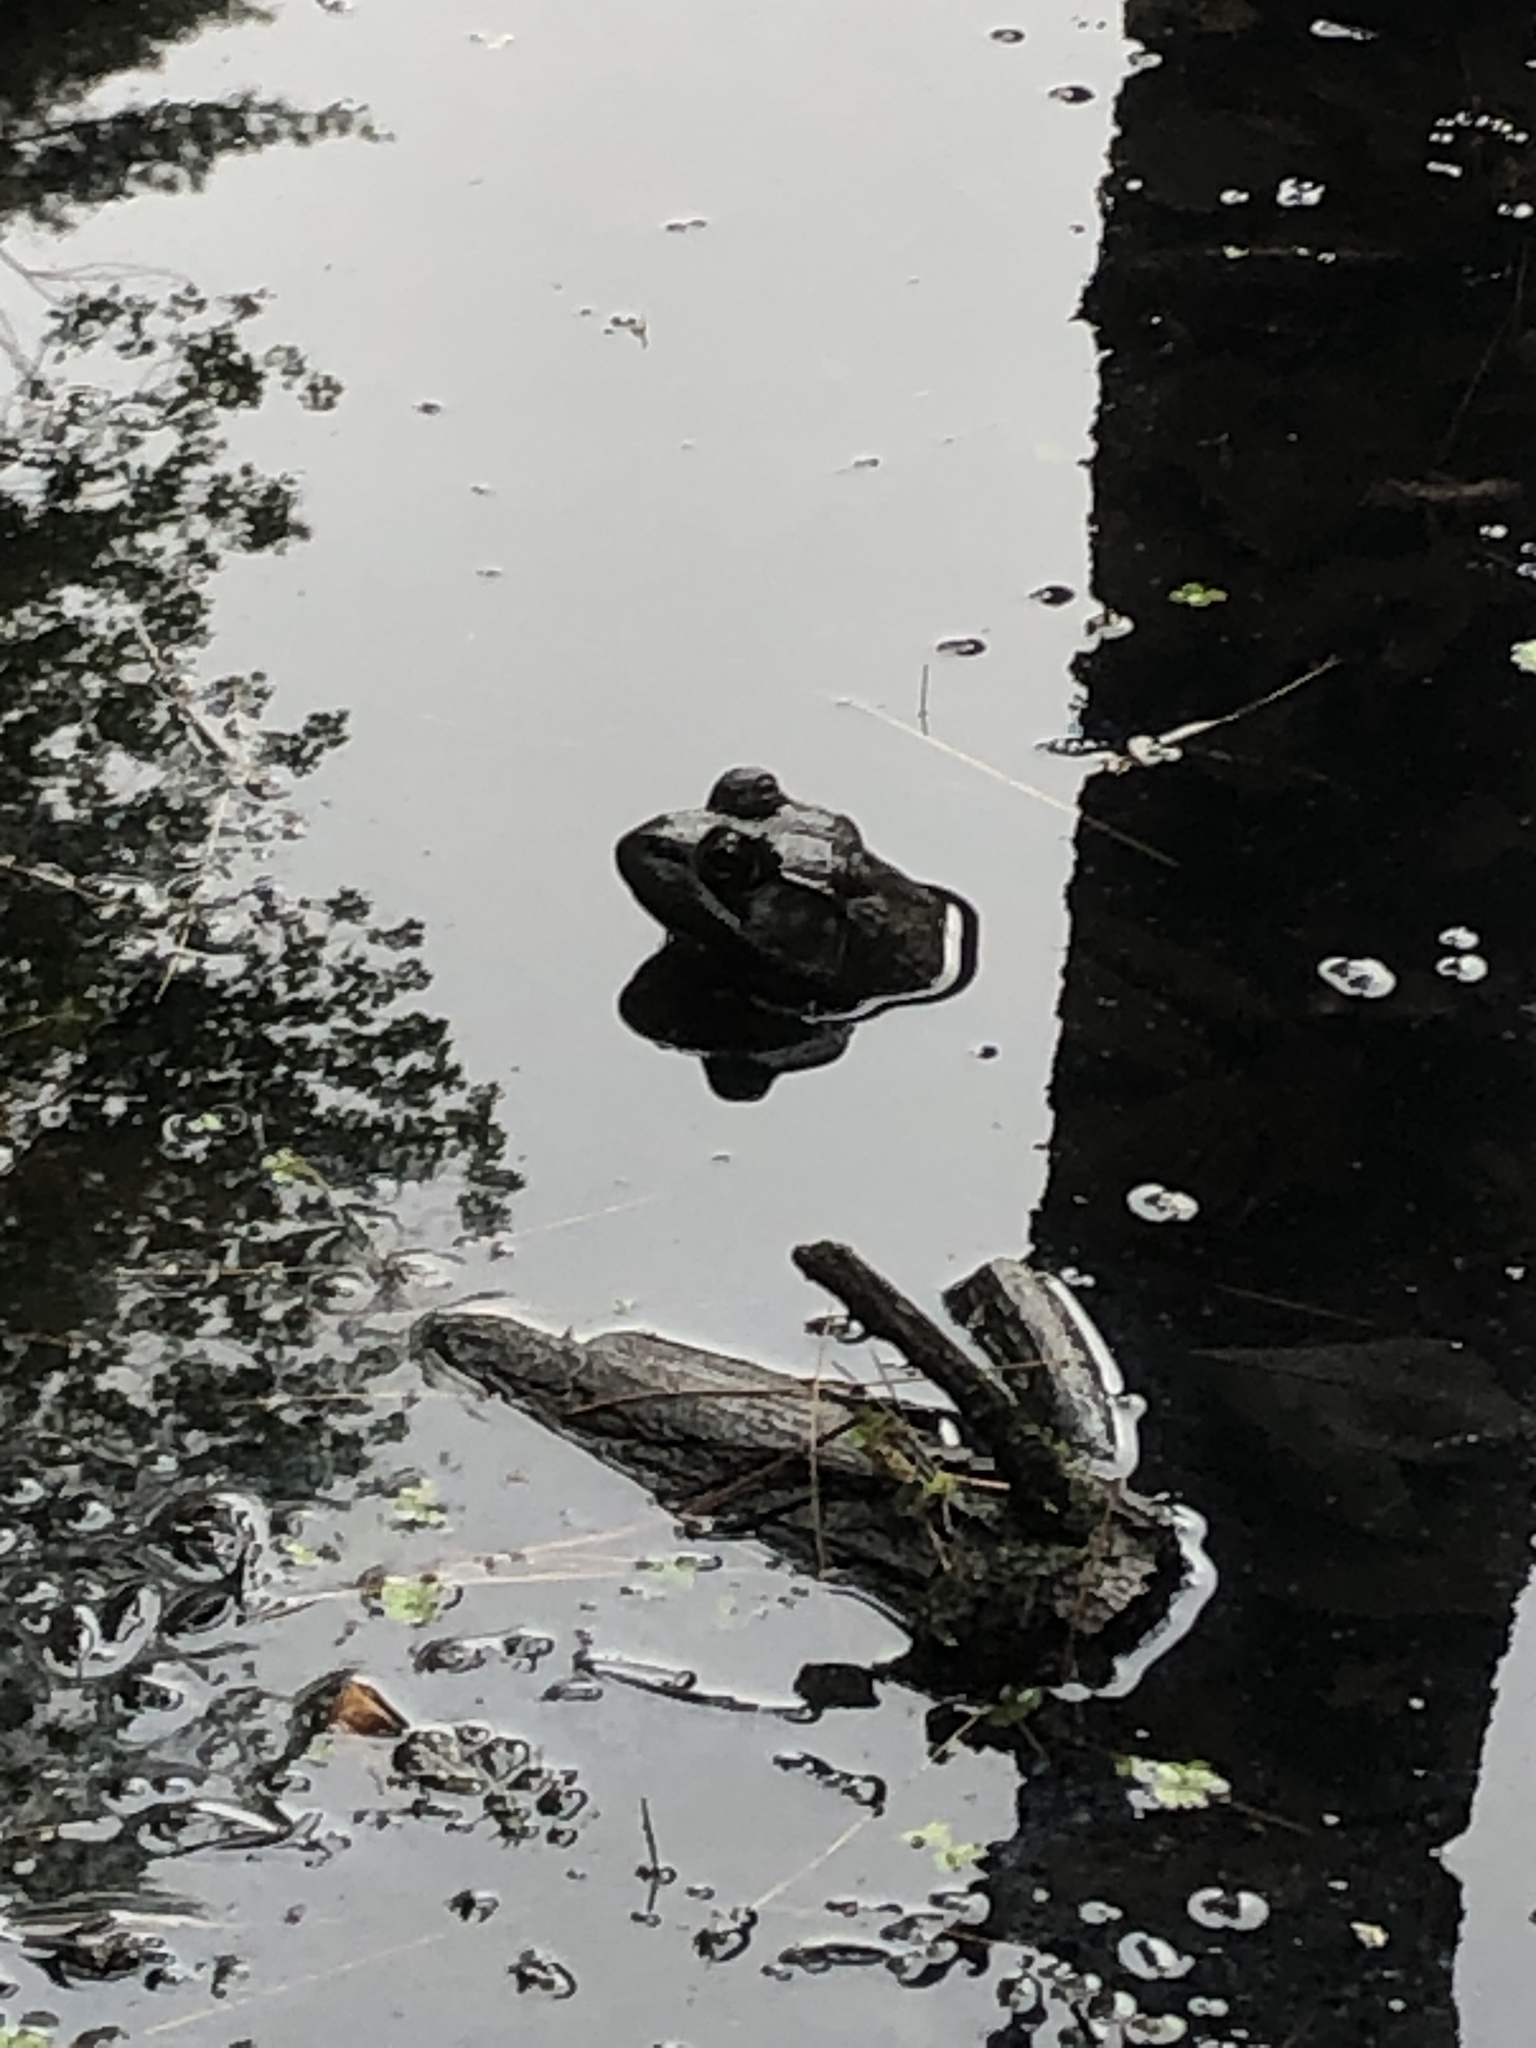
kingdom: Animalia
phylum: Chordata
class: Amphibia
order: Anura
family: Ranidae
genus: Lithobates
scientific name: Lithobates clamitans
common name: Green frog
